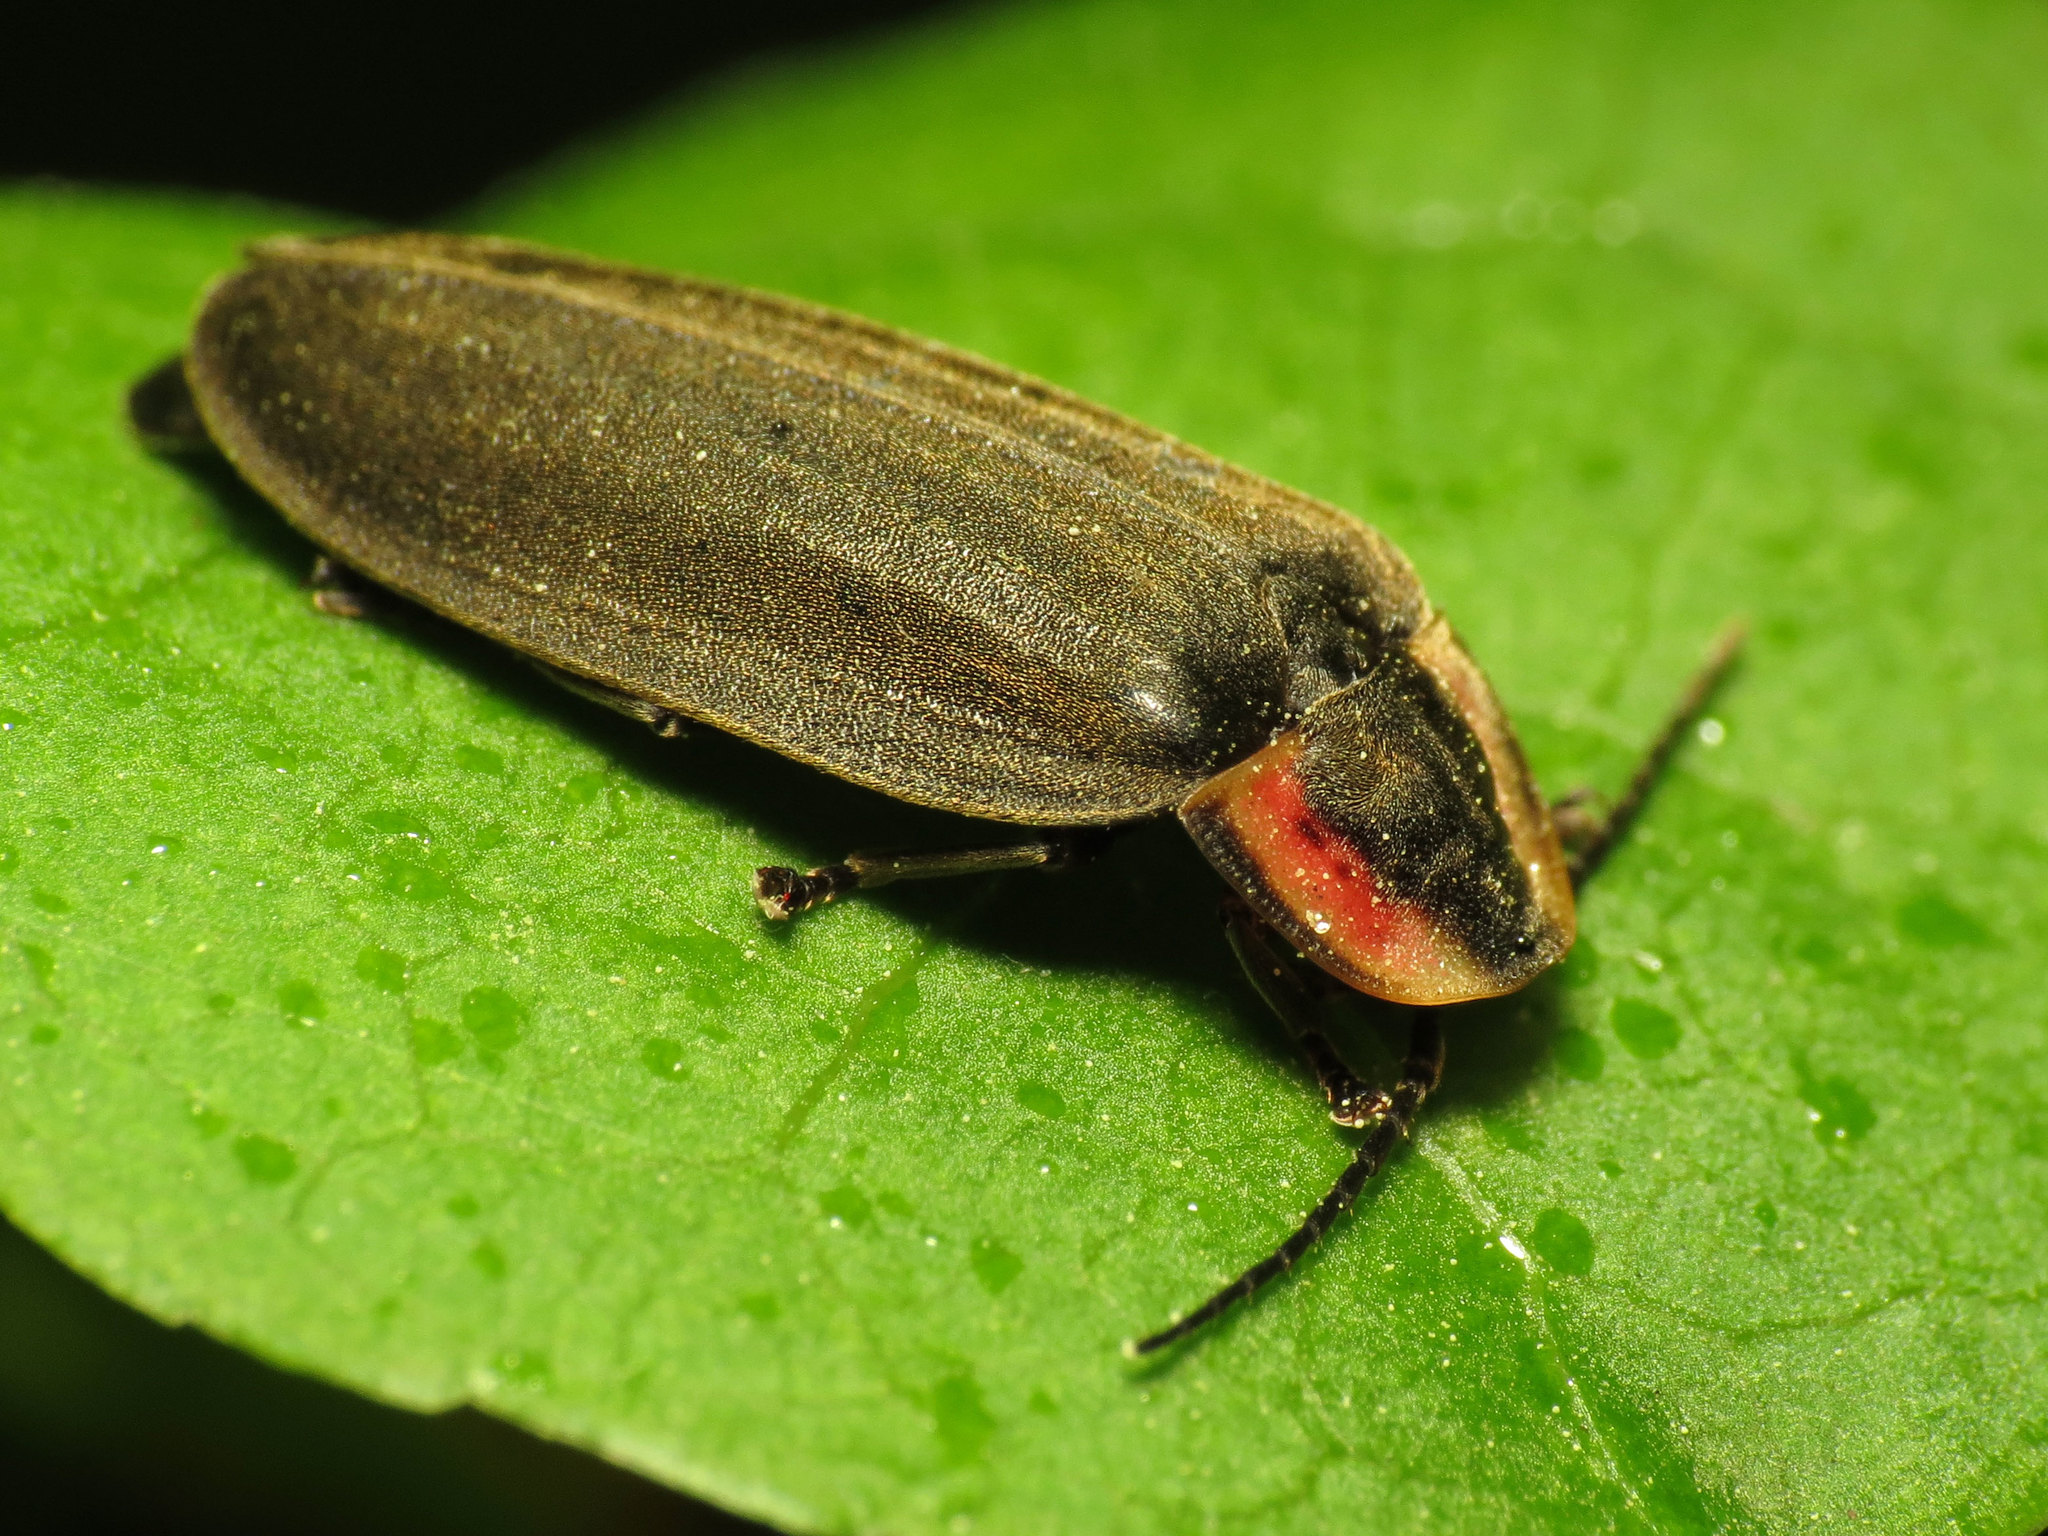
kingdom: Animalia
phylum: Arthropoda
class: Insecta
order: Coleoptera
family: Lampyridae
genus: Photinus
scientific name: Photinus corrusca
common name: Winter firefly
